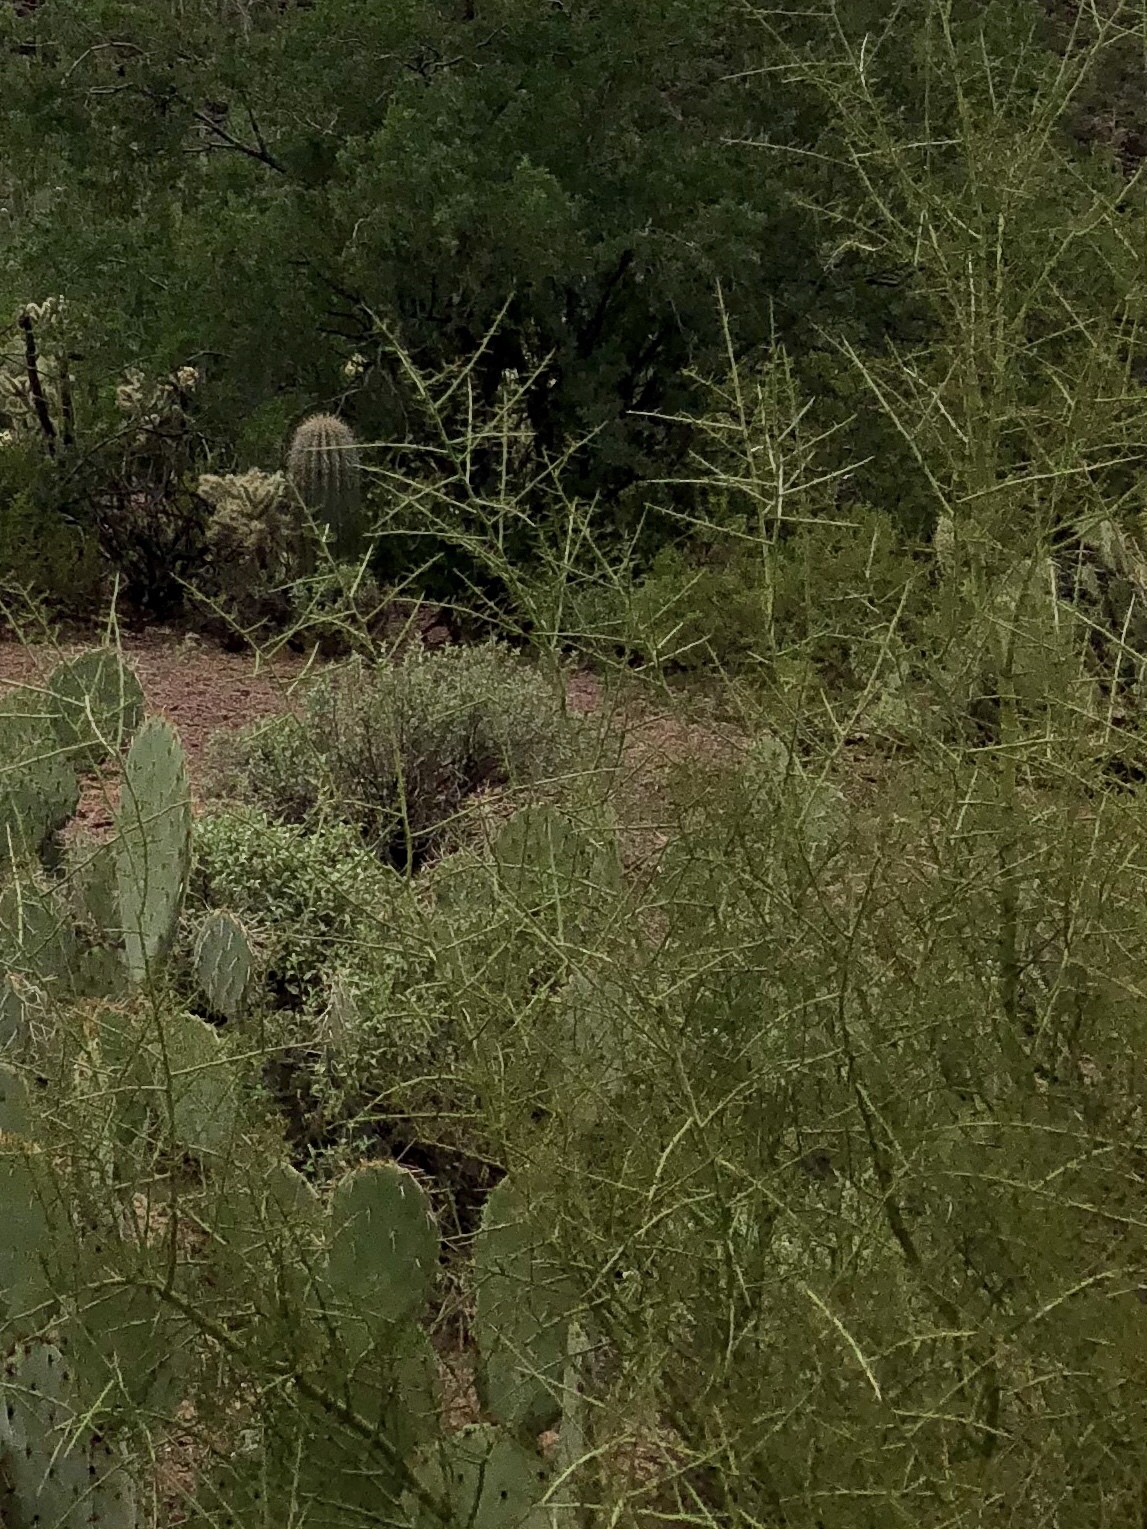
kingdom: Plantae
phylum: Tracheophyta
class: Magnoliopsida
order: Fabales
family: Fabaceae
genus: Parkinsonia
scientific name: Parkinsonia microphylla
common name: Yellow paloverde
